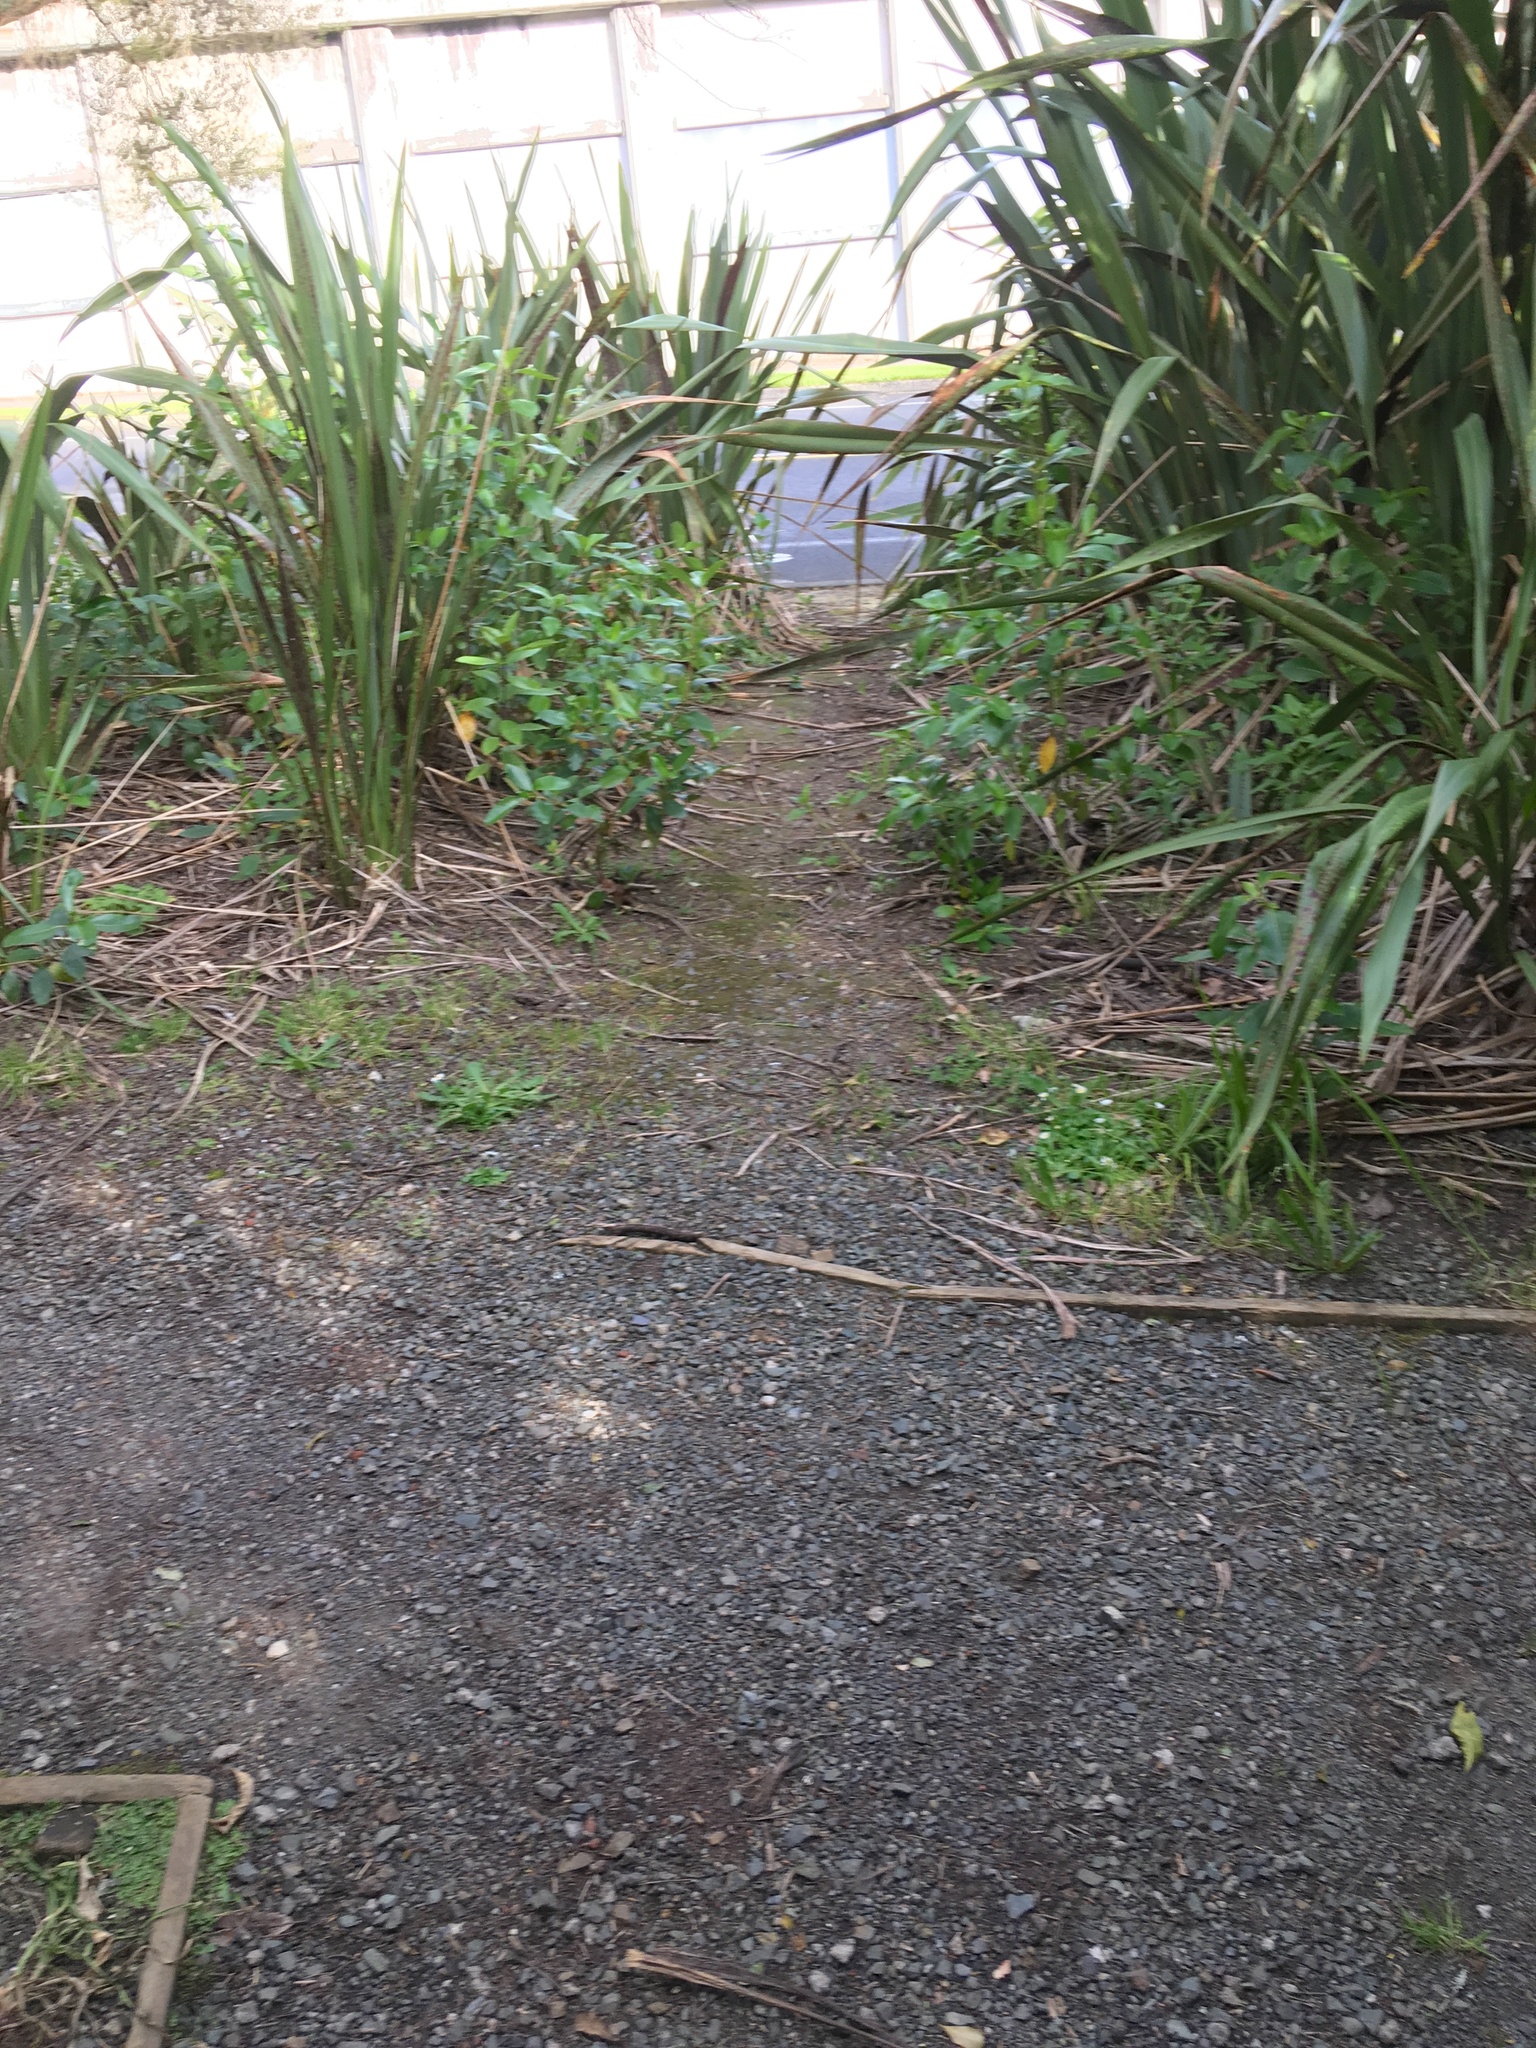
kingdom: Plantae
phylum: Tracheophyta
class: Liliopsida
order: Asparagales
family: Asphodelaceae
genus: Phormium
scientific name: Phormium tenax
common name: New zealand flax
